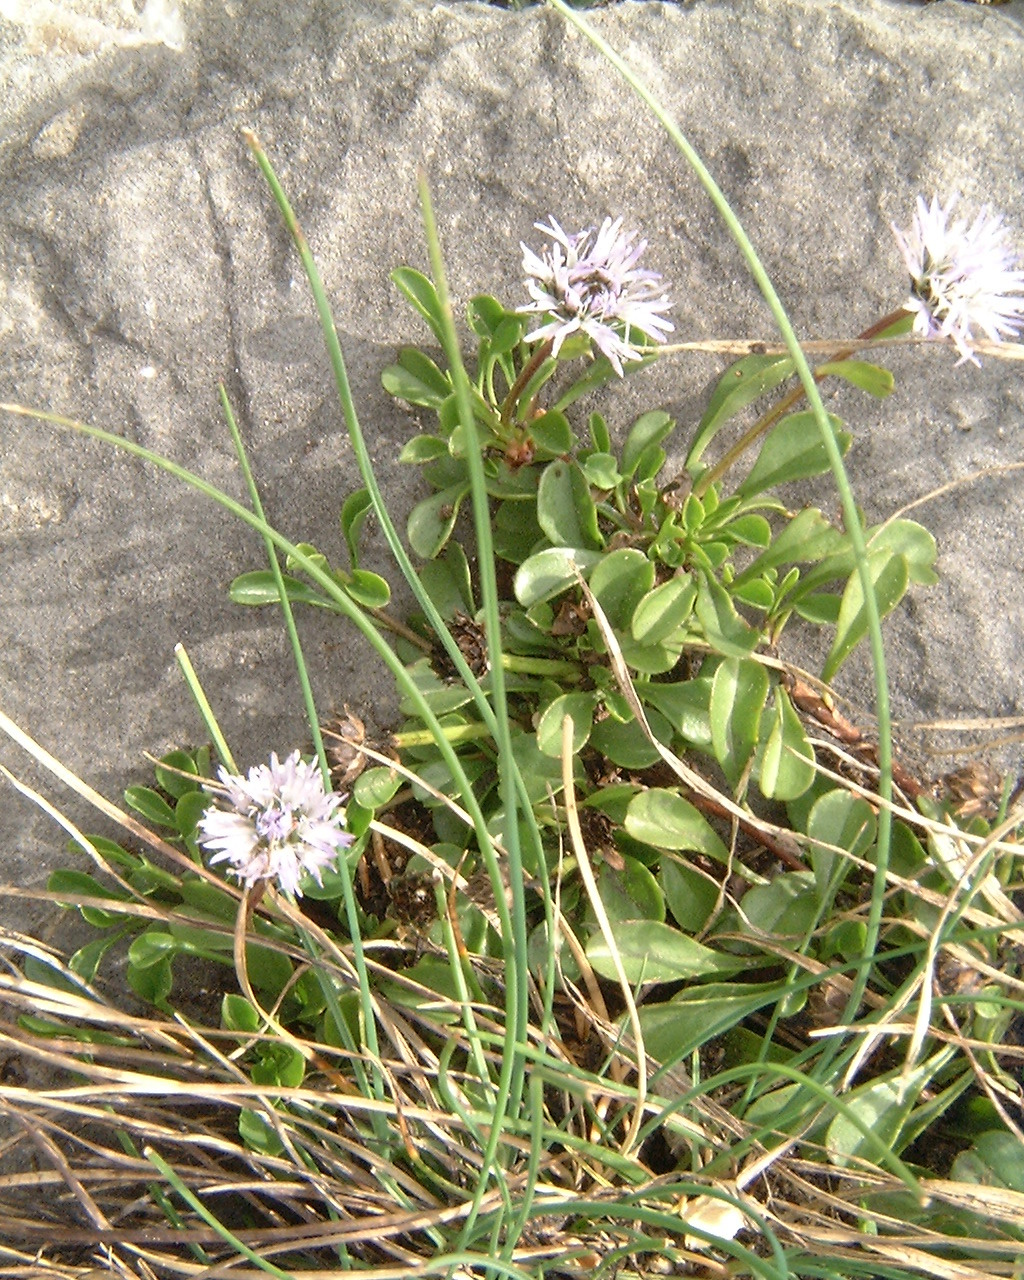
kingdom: Plantae
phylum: Tracheophyta
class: Magnoliopsida
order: Lamiales
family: Plantaginaceae
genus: Globularia
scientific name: Globularia cordifolia
